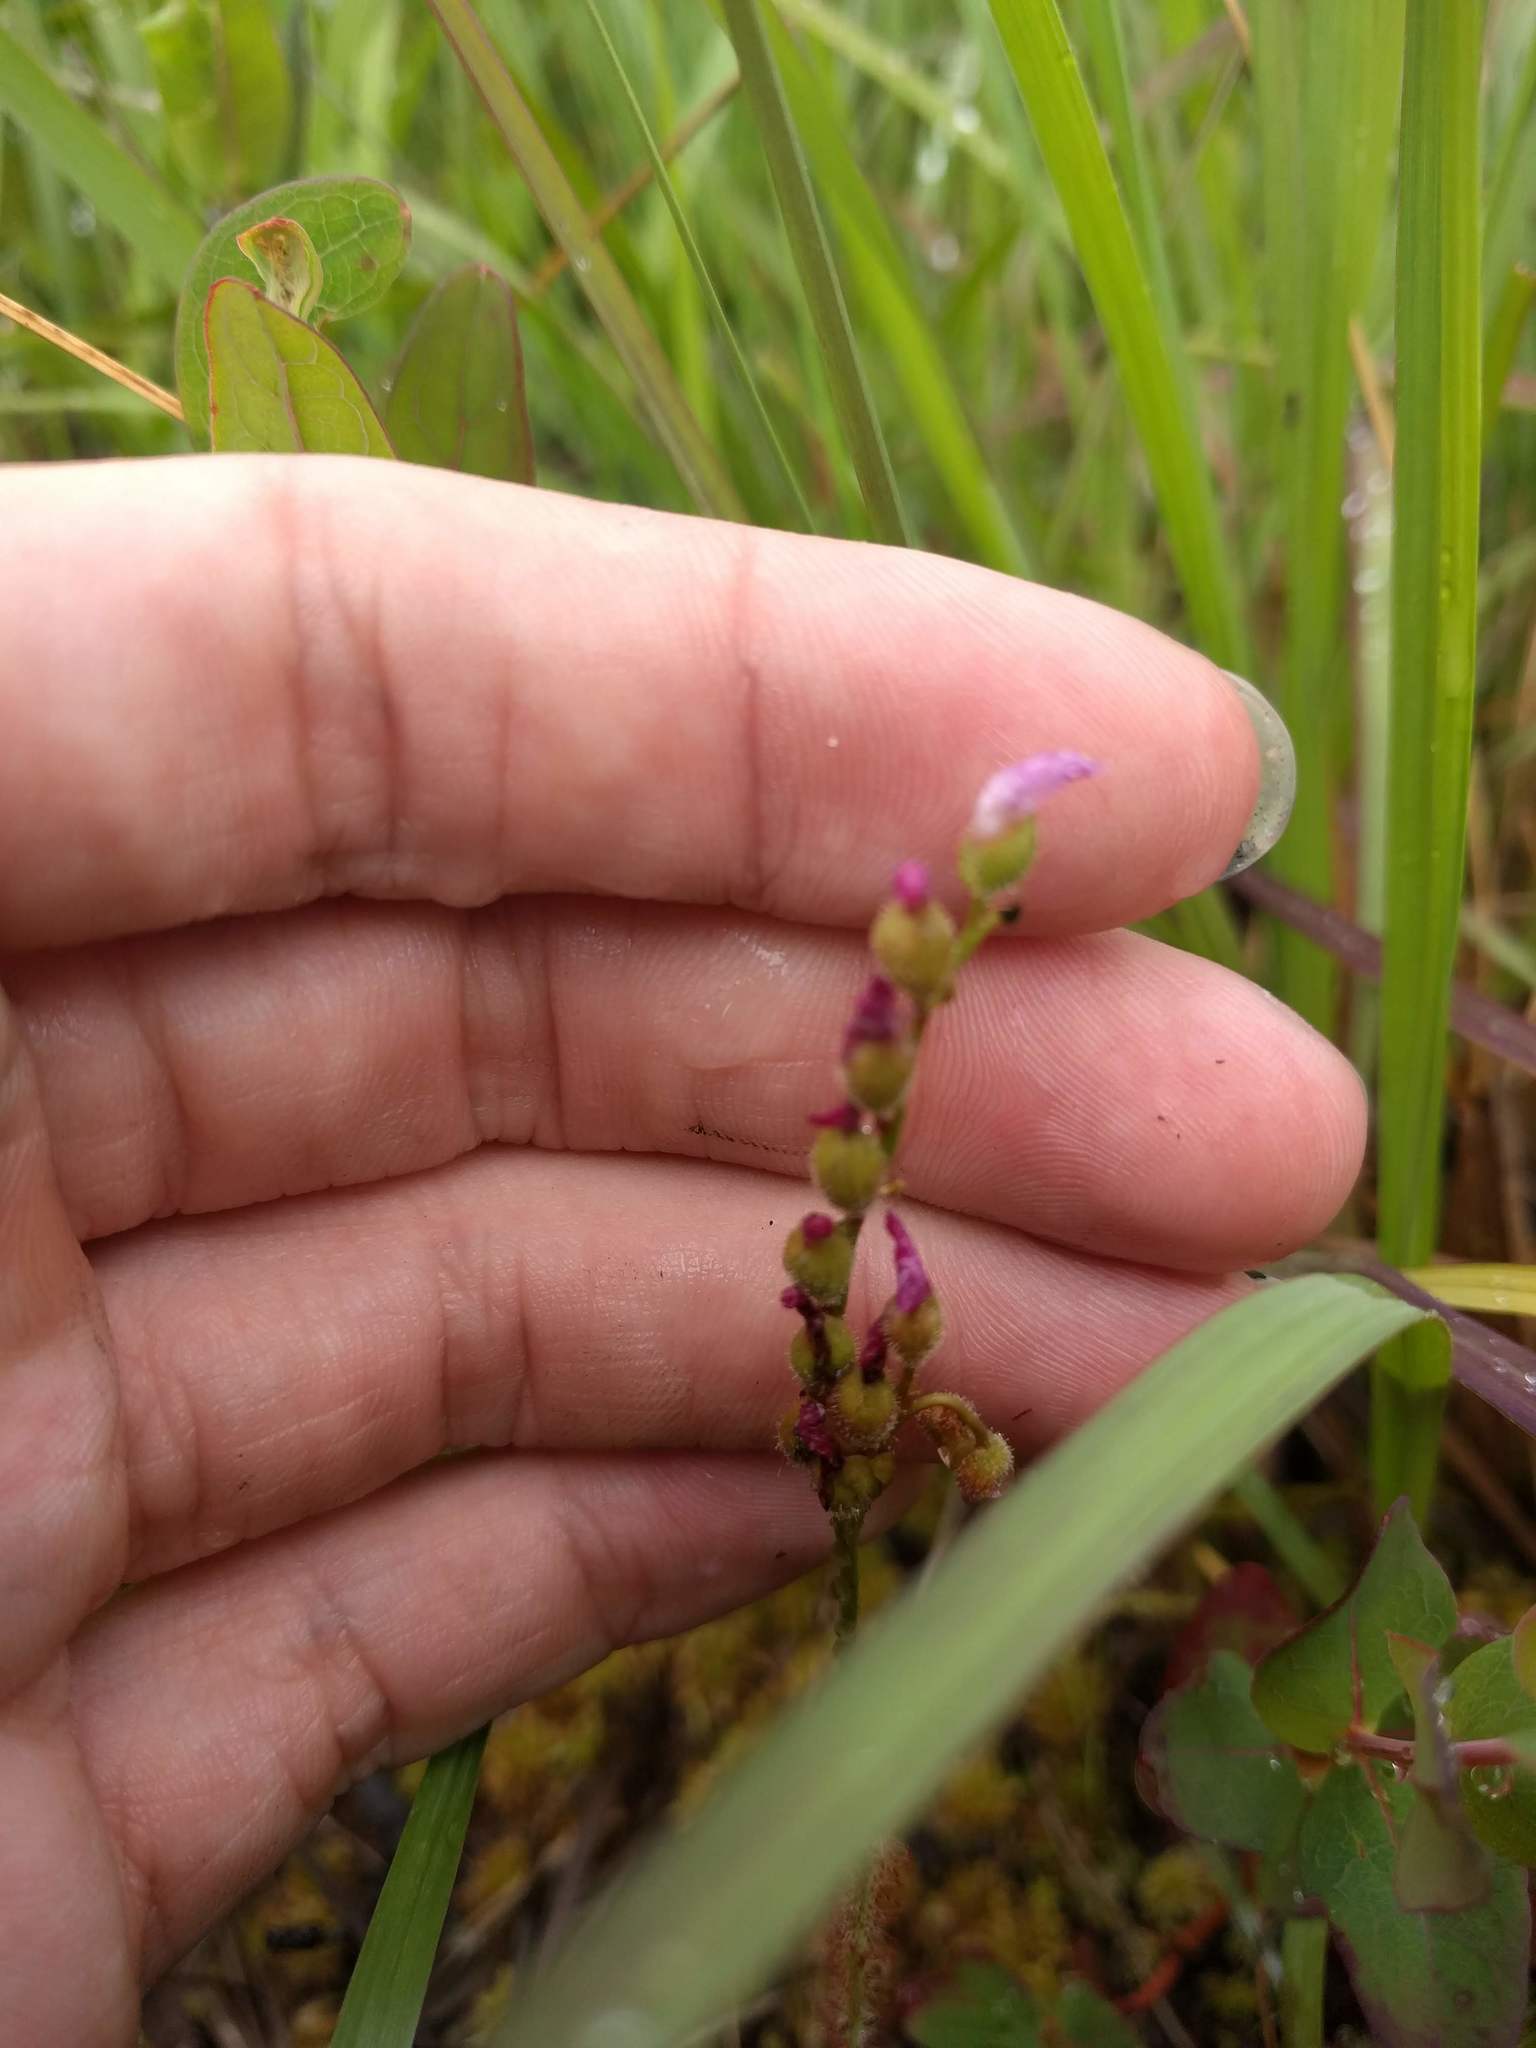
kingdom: Plantae
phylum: Tracheophyta
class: Magnoliopsida
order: Caryophyllales
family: Droseraceae
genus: Drosera
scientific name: Drosera filiformis
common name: Dew-thread
